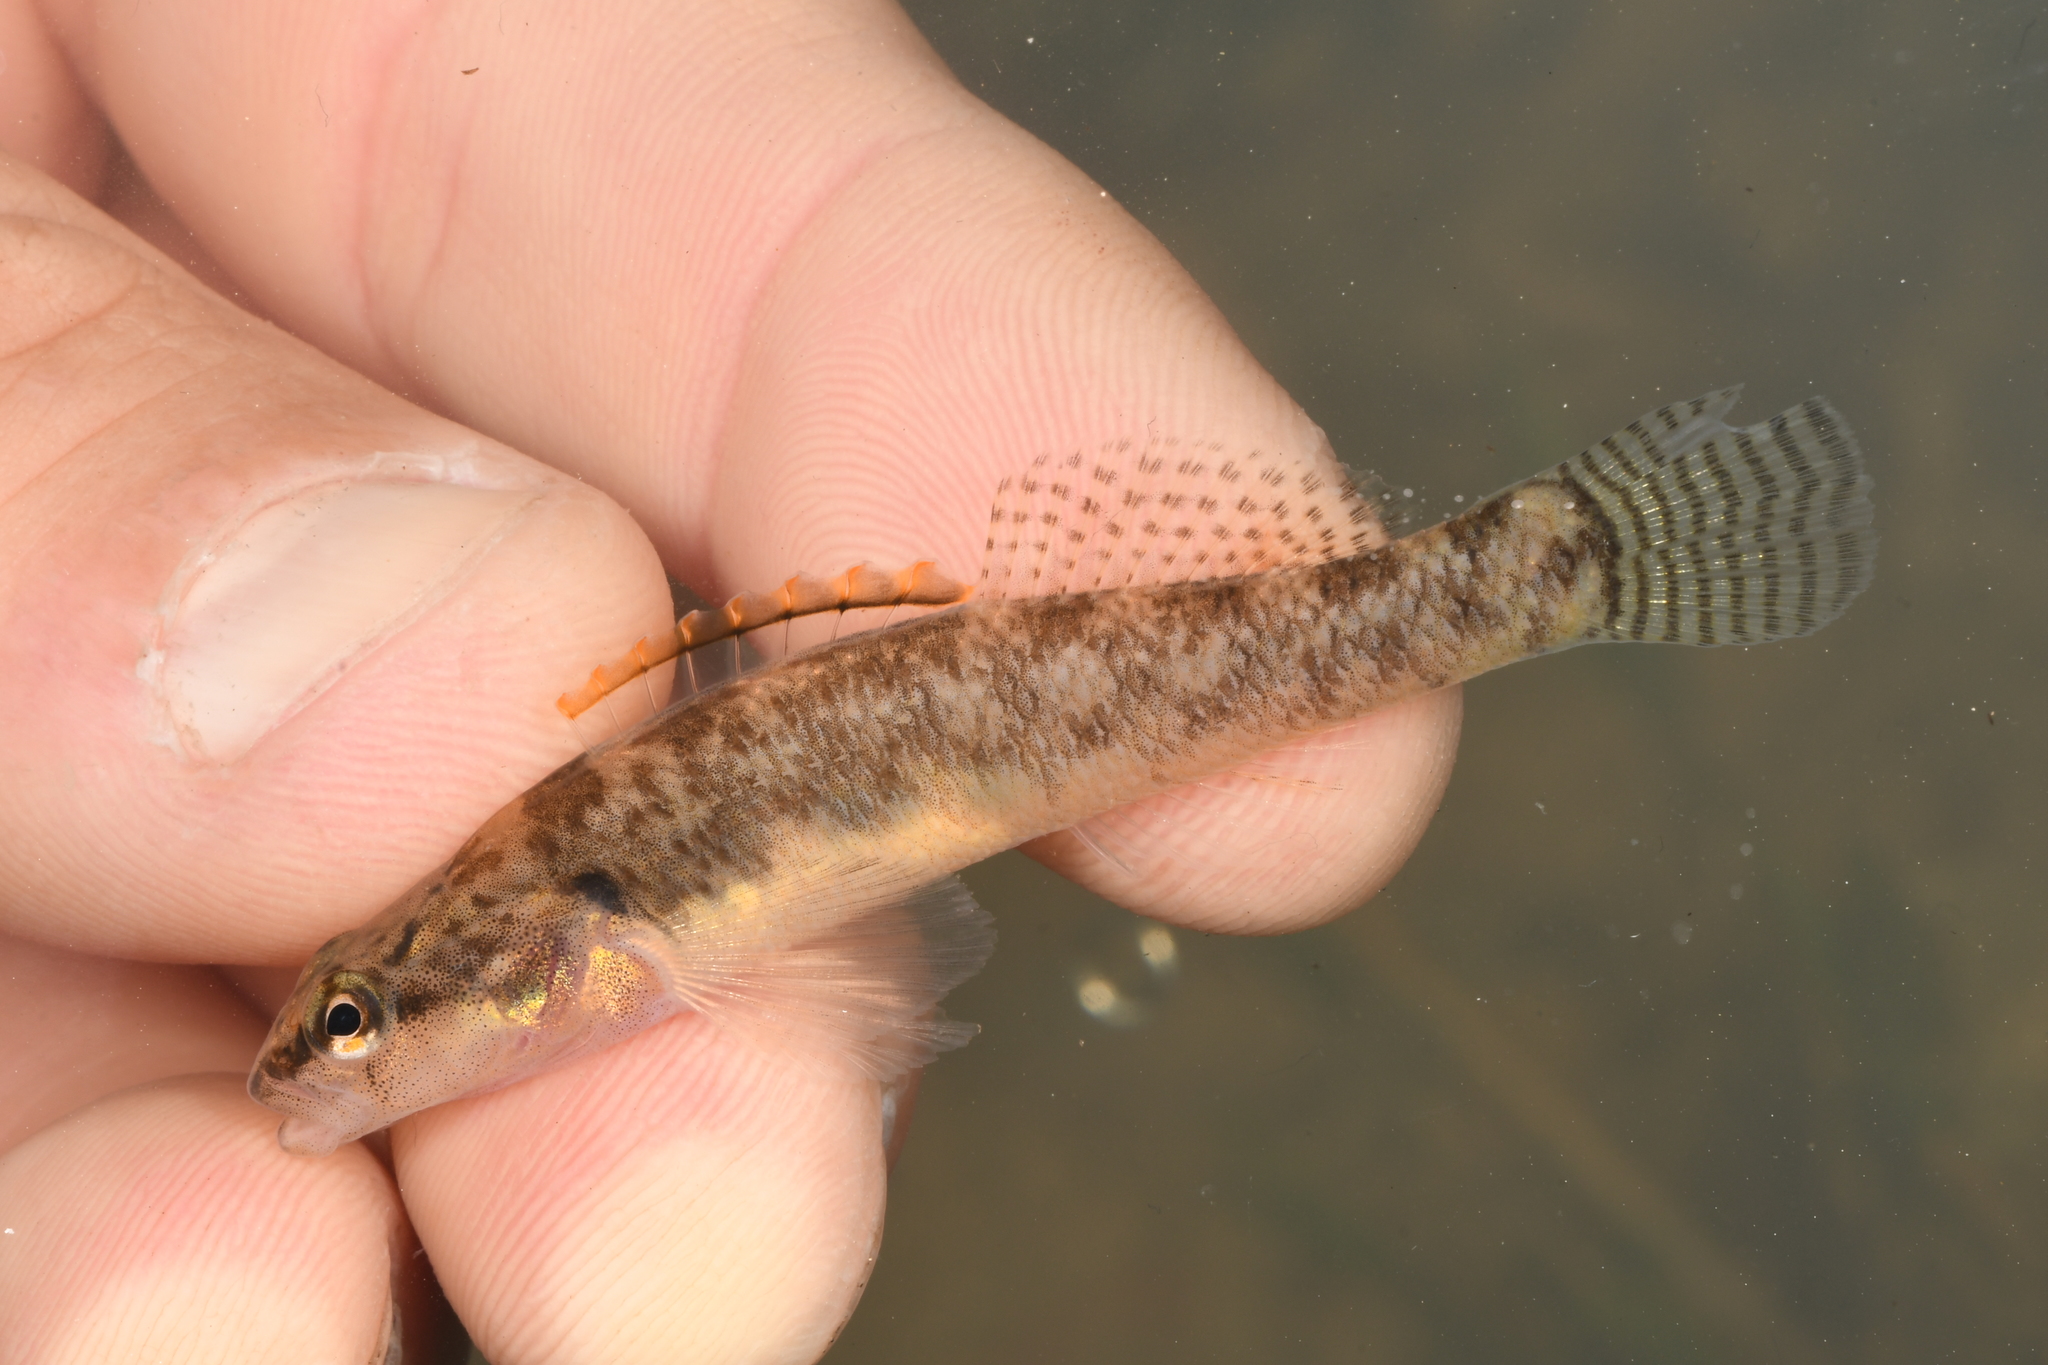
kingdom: Animalia
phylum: Chordata
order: Perciformes
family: Percidae
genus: Etheostoma
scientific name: Etheostoma kennicotti
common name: Stripetail darter
